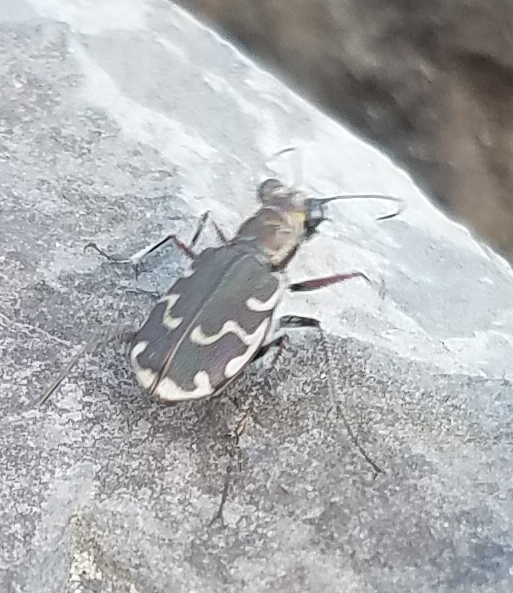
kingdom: Animalia
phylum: Arthropoda
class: Insecta
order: Coleoptera
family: Carabidae
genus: Cicindela
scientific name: Cicindela repanda
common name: Bronzed tiger beetle
